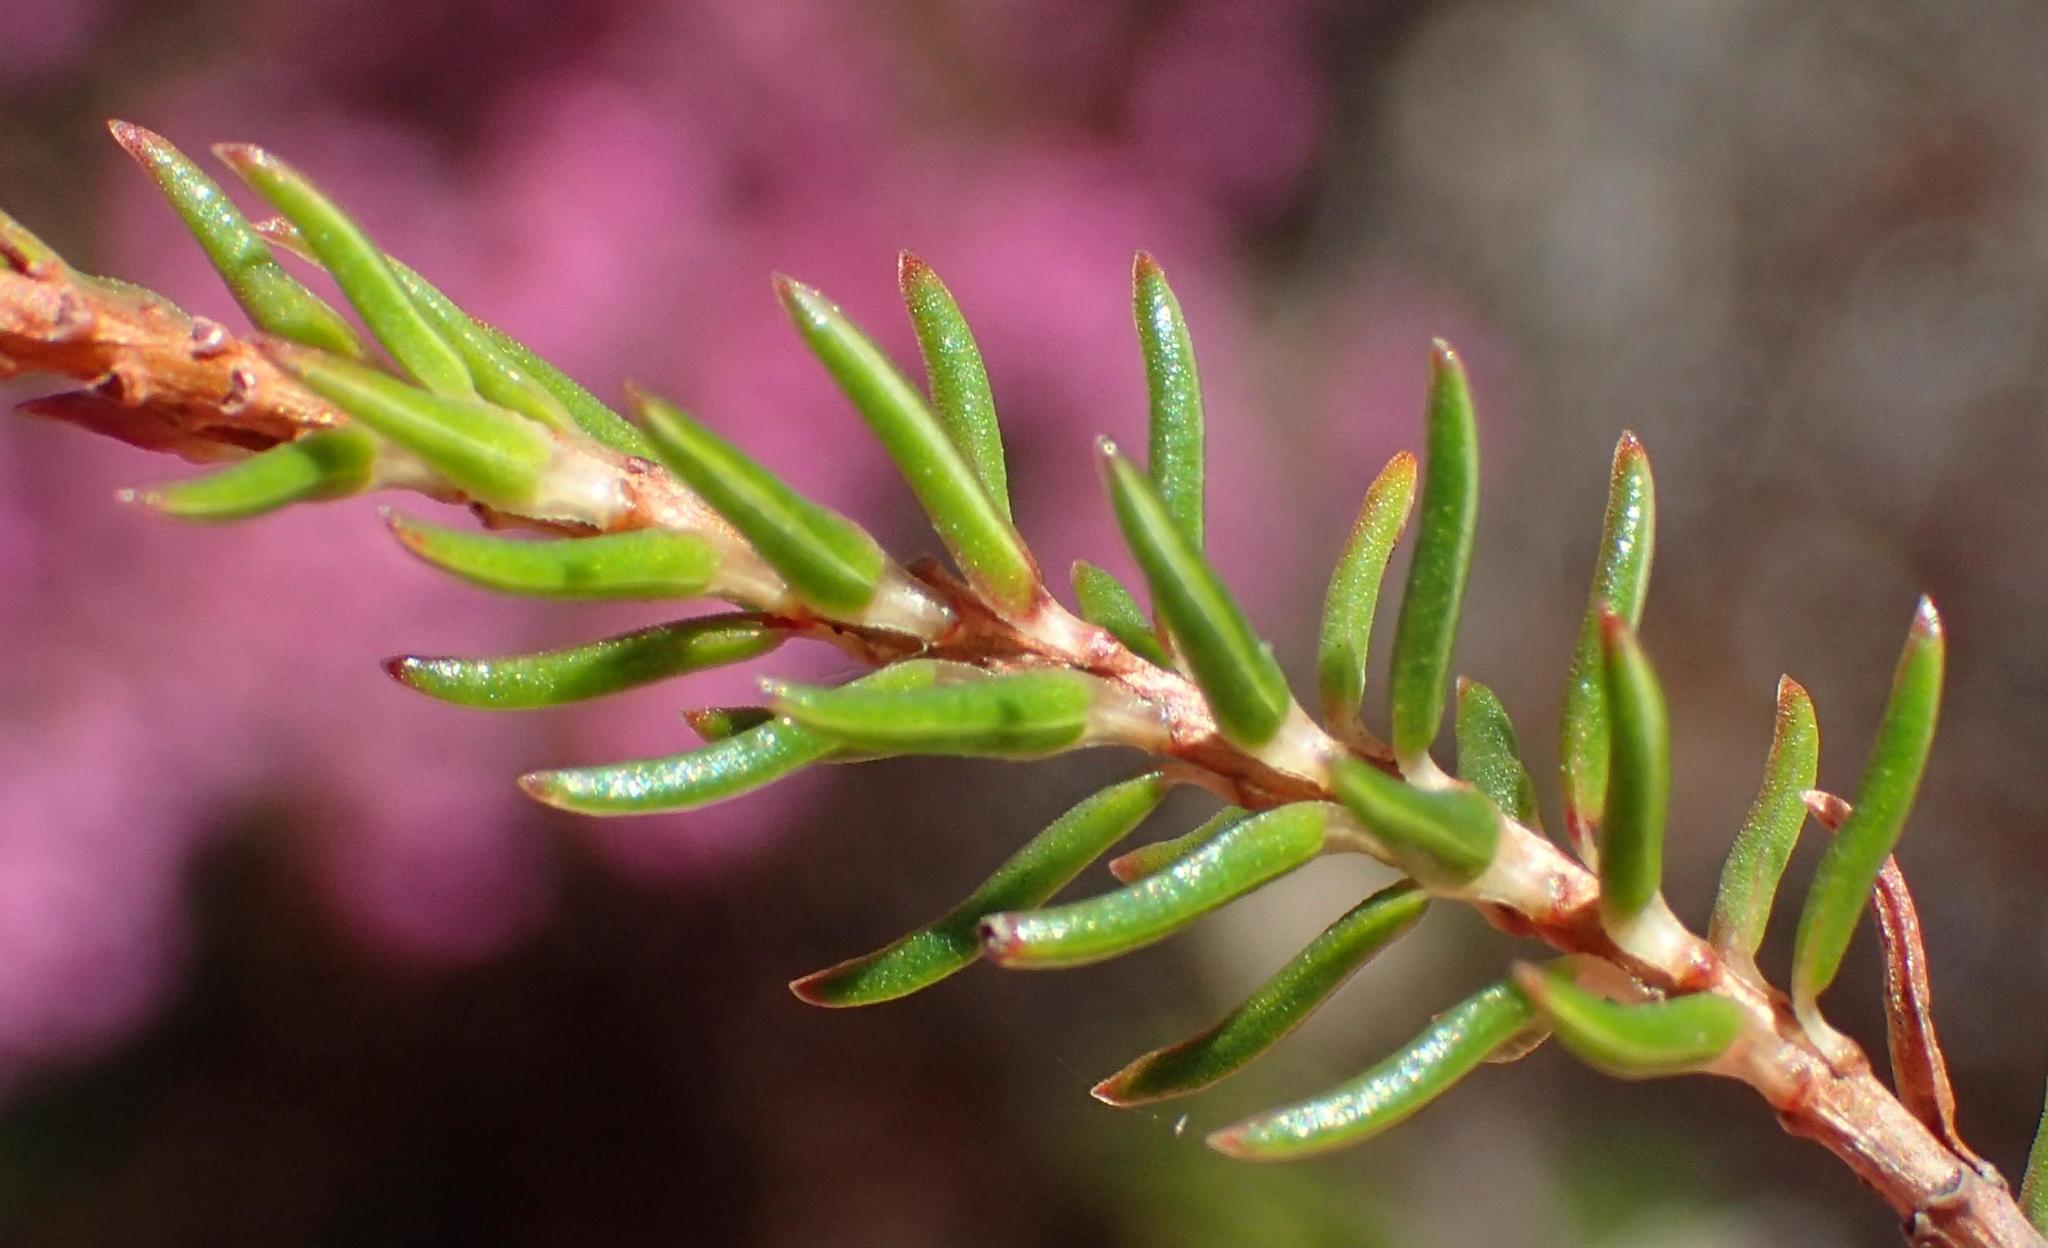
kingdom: Plantae
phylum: Tracheophyta
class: Magnoliopsida
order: Ericales
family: Ericaceae
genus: Erica
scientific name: Erica cubica
